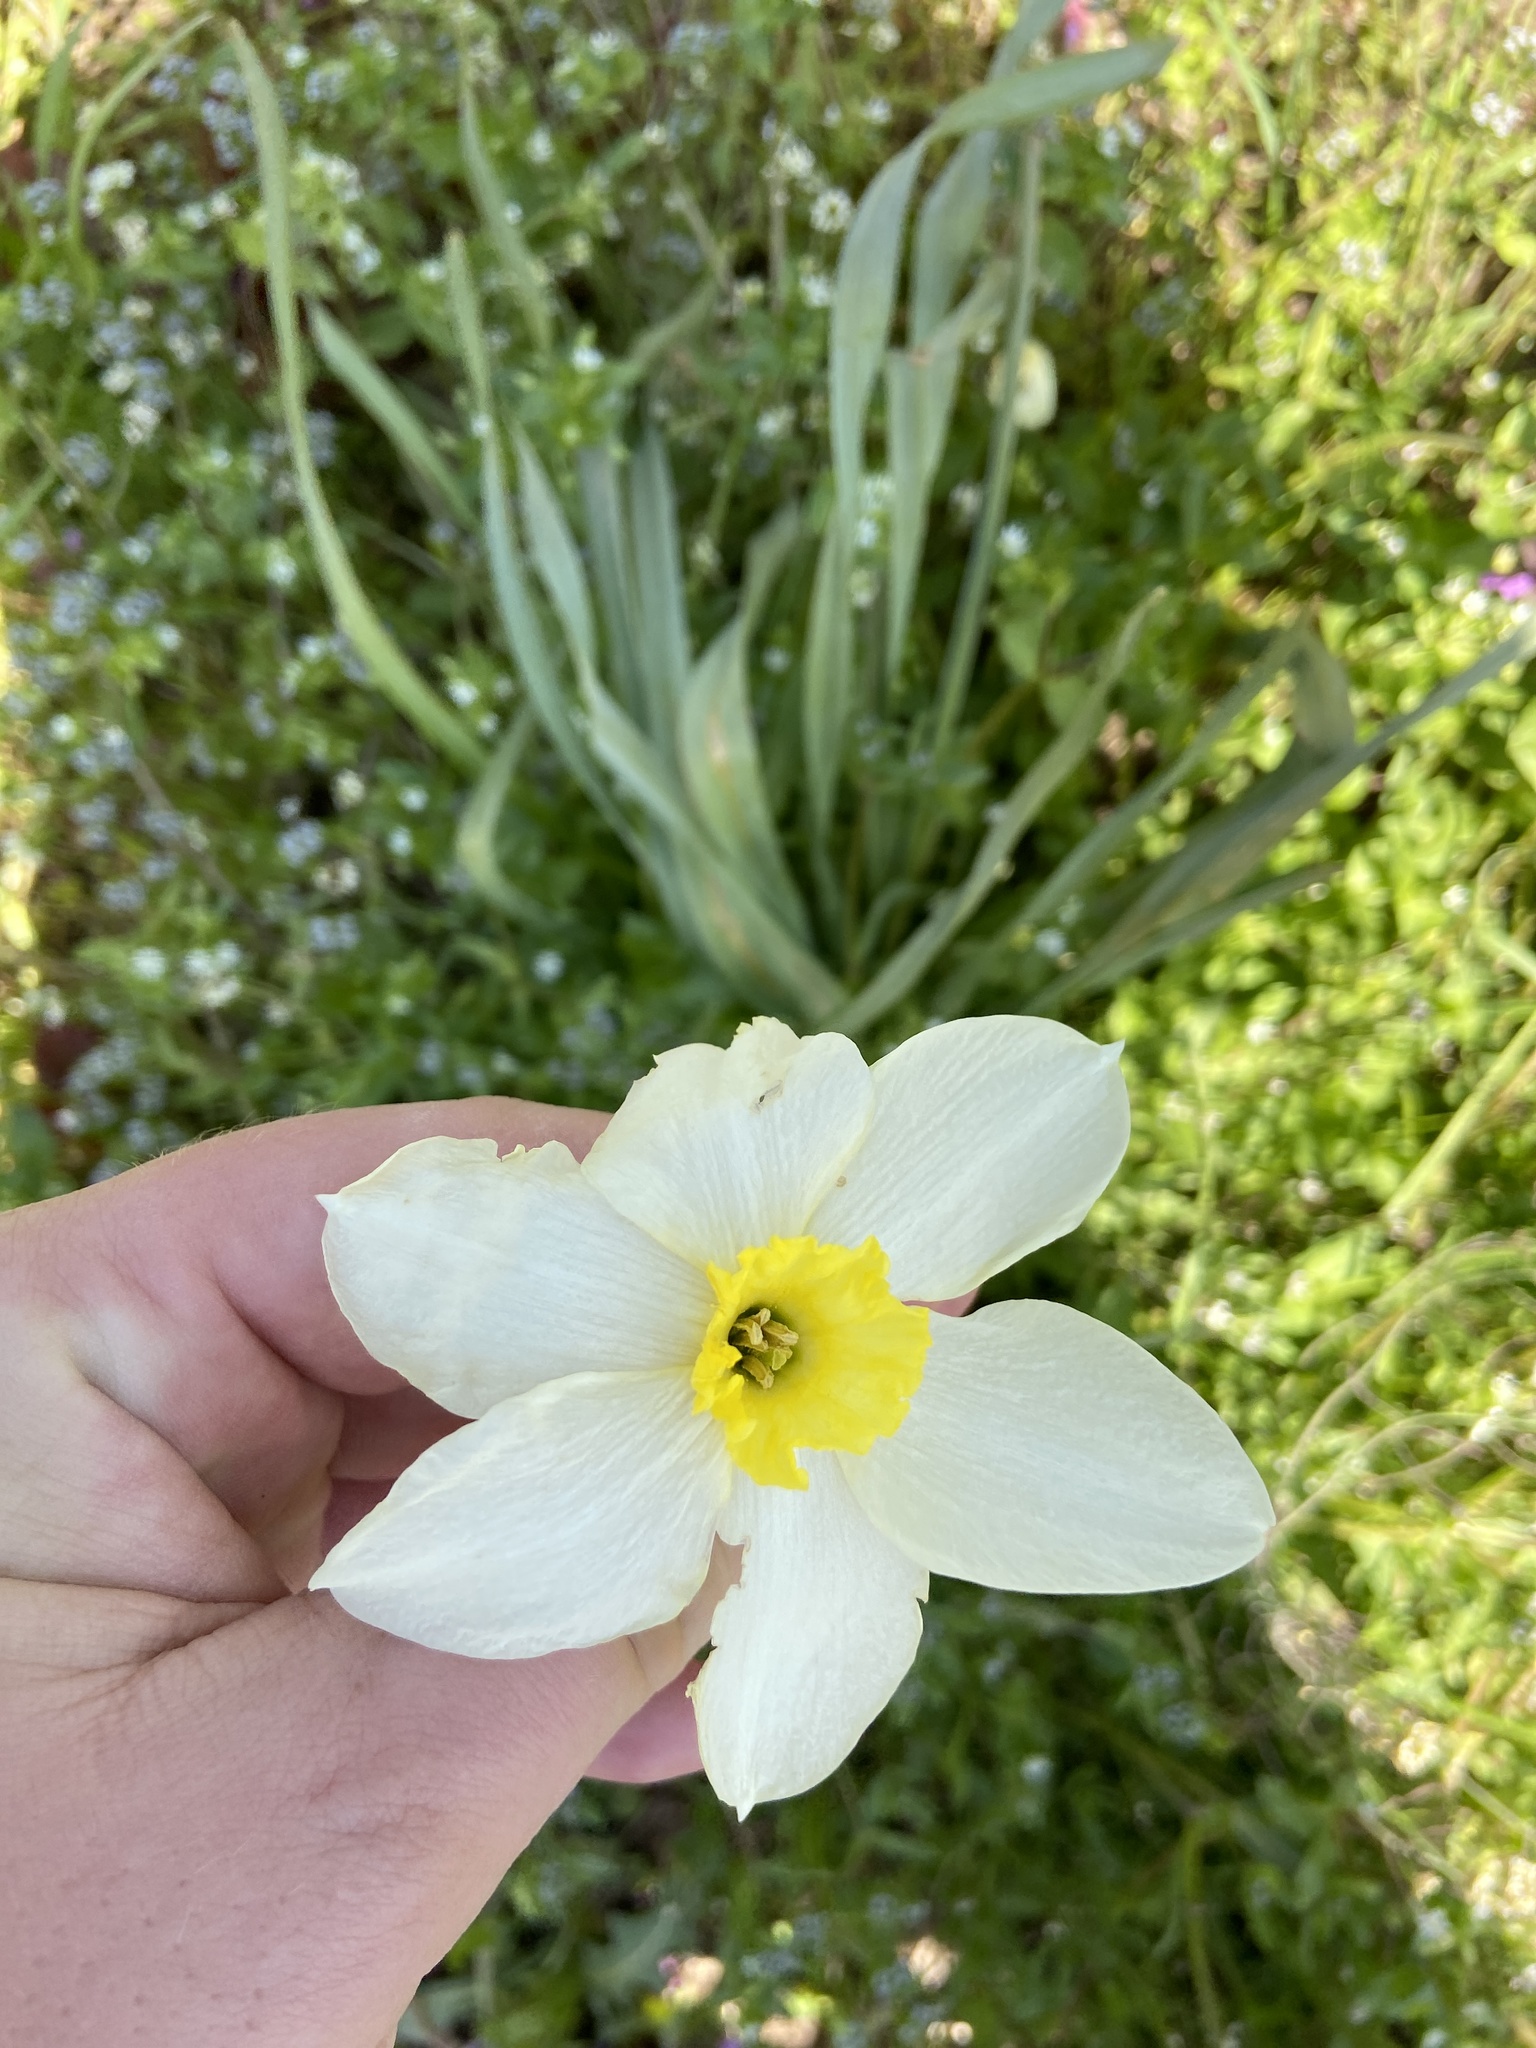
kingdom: Plantae
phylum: Tracheophyta
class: Liliopsida
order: Asparagales
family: Amaryllidaceae
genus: Narcissus
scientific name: Narcissus poeticus
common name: Pheasant's-eye daffodil
